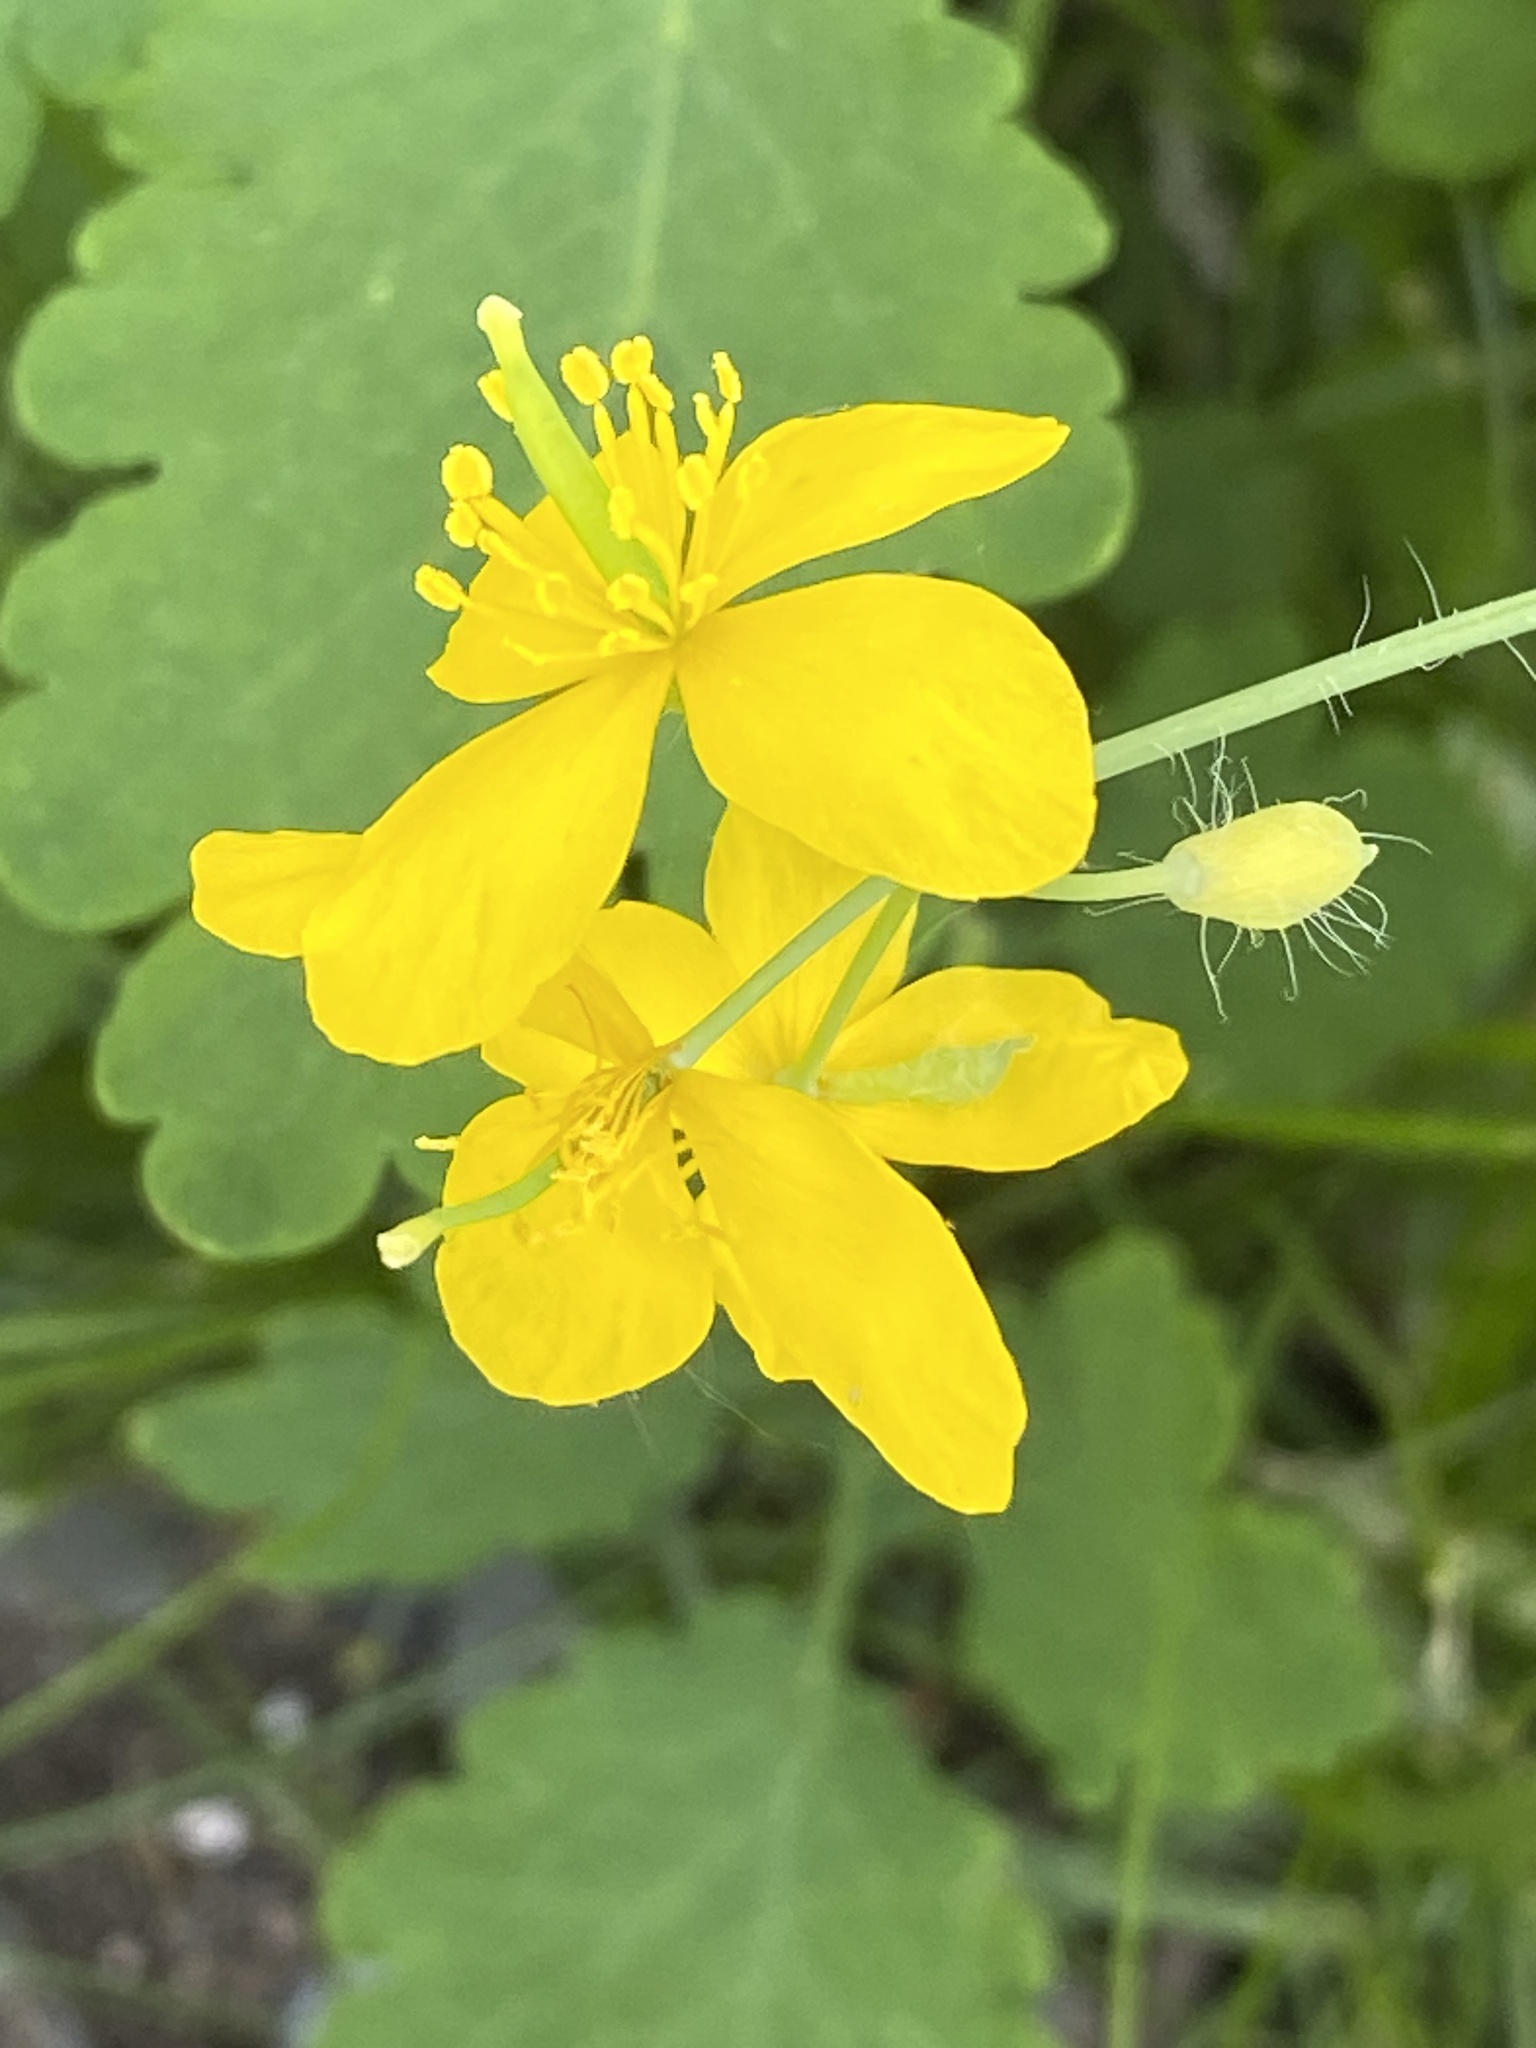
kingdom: Plantae
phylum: Tracheophyta
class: Magnoliopsida
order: Ranunculales
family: Papaveraceae
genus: Chelidonium
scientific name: Chelidonium majus
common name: Greater celandine
